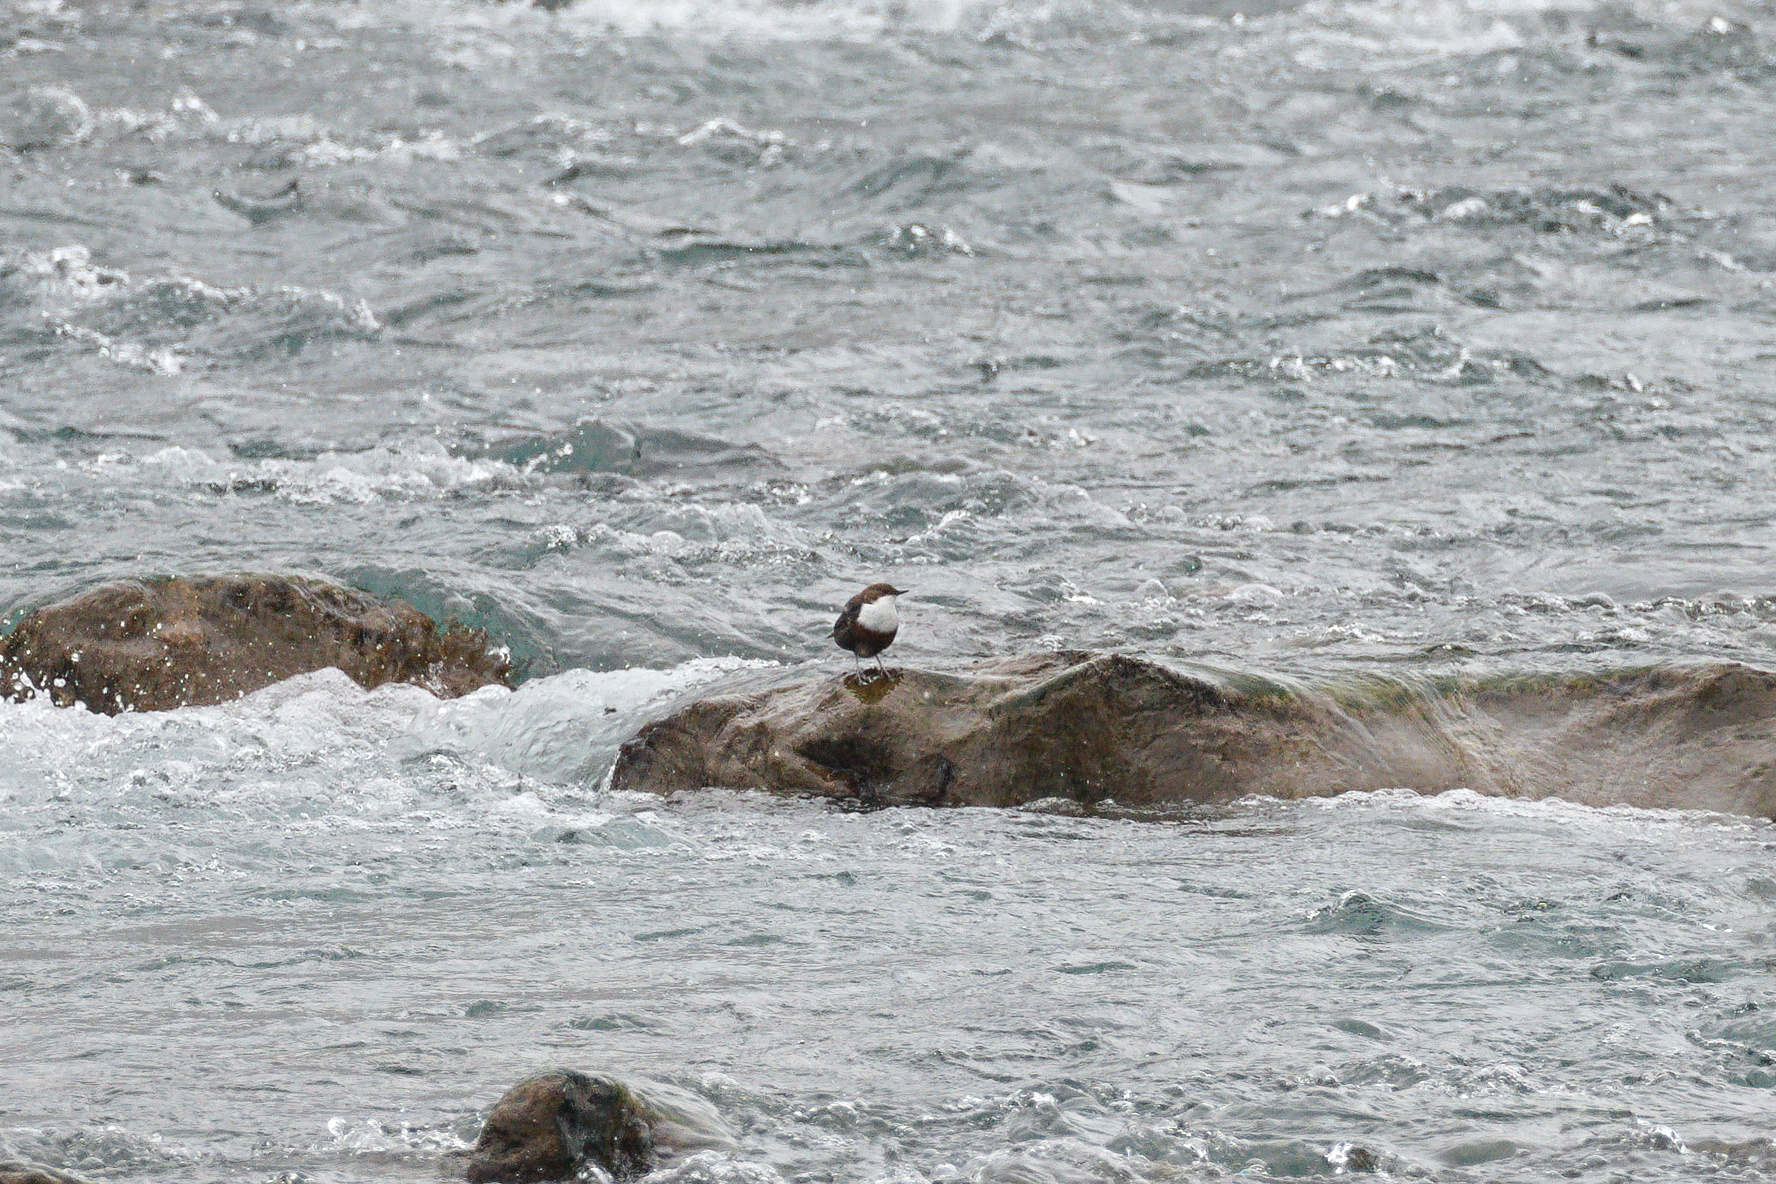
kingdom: Animalia
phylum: Chordata
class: Aves
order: Passeriformes
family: Cinclidae
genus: Cinclus
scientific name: Cinclus cinclus
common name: White-throated dipper
